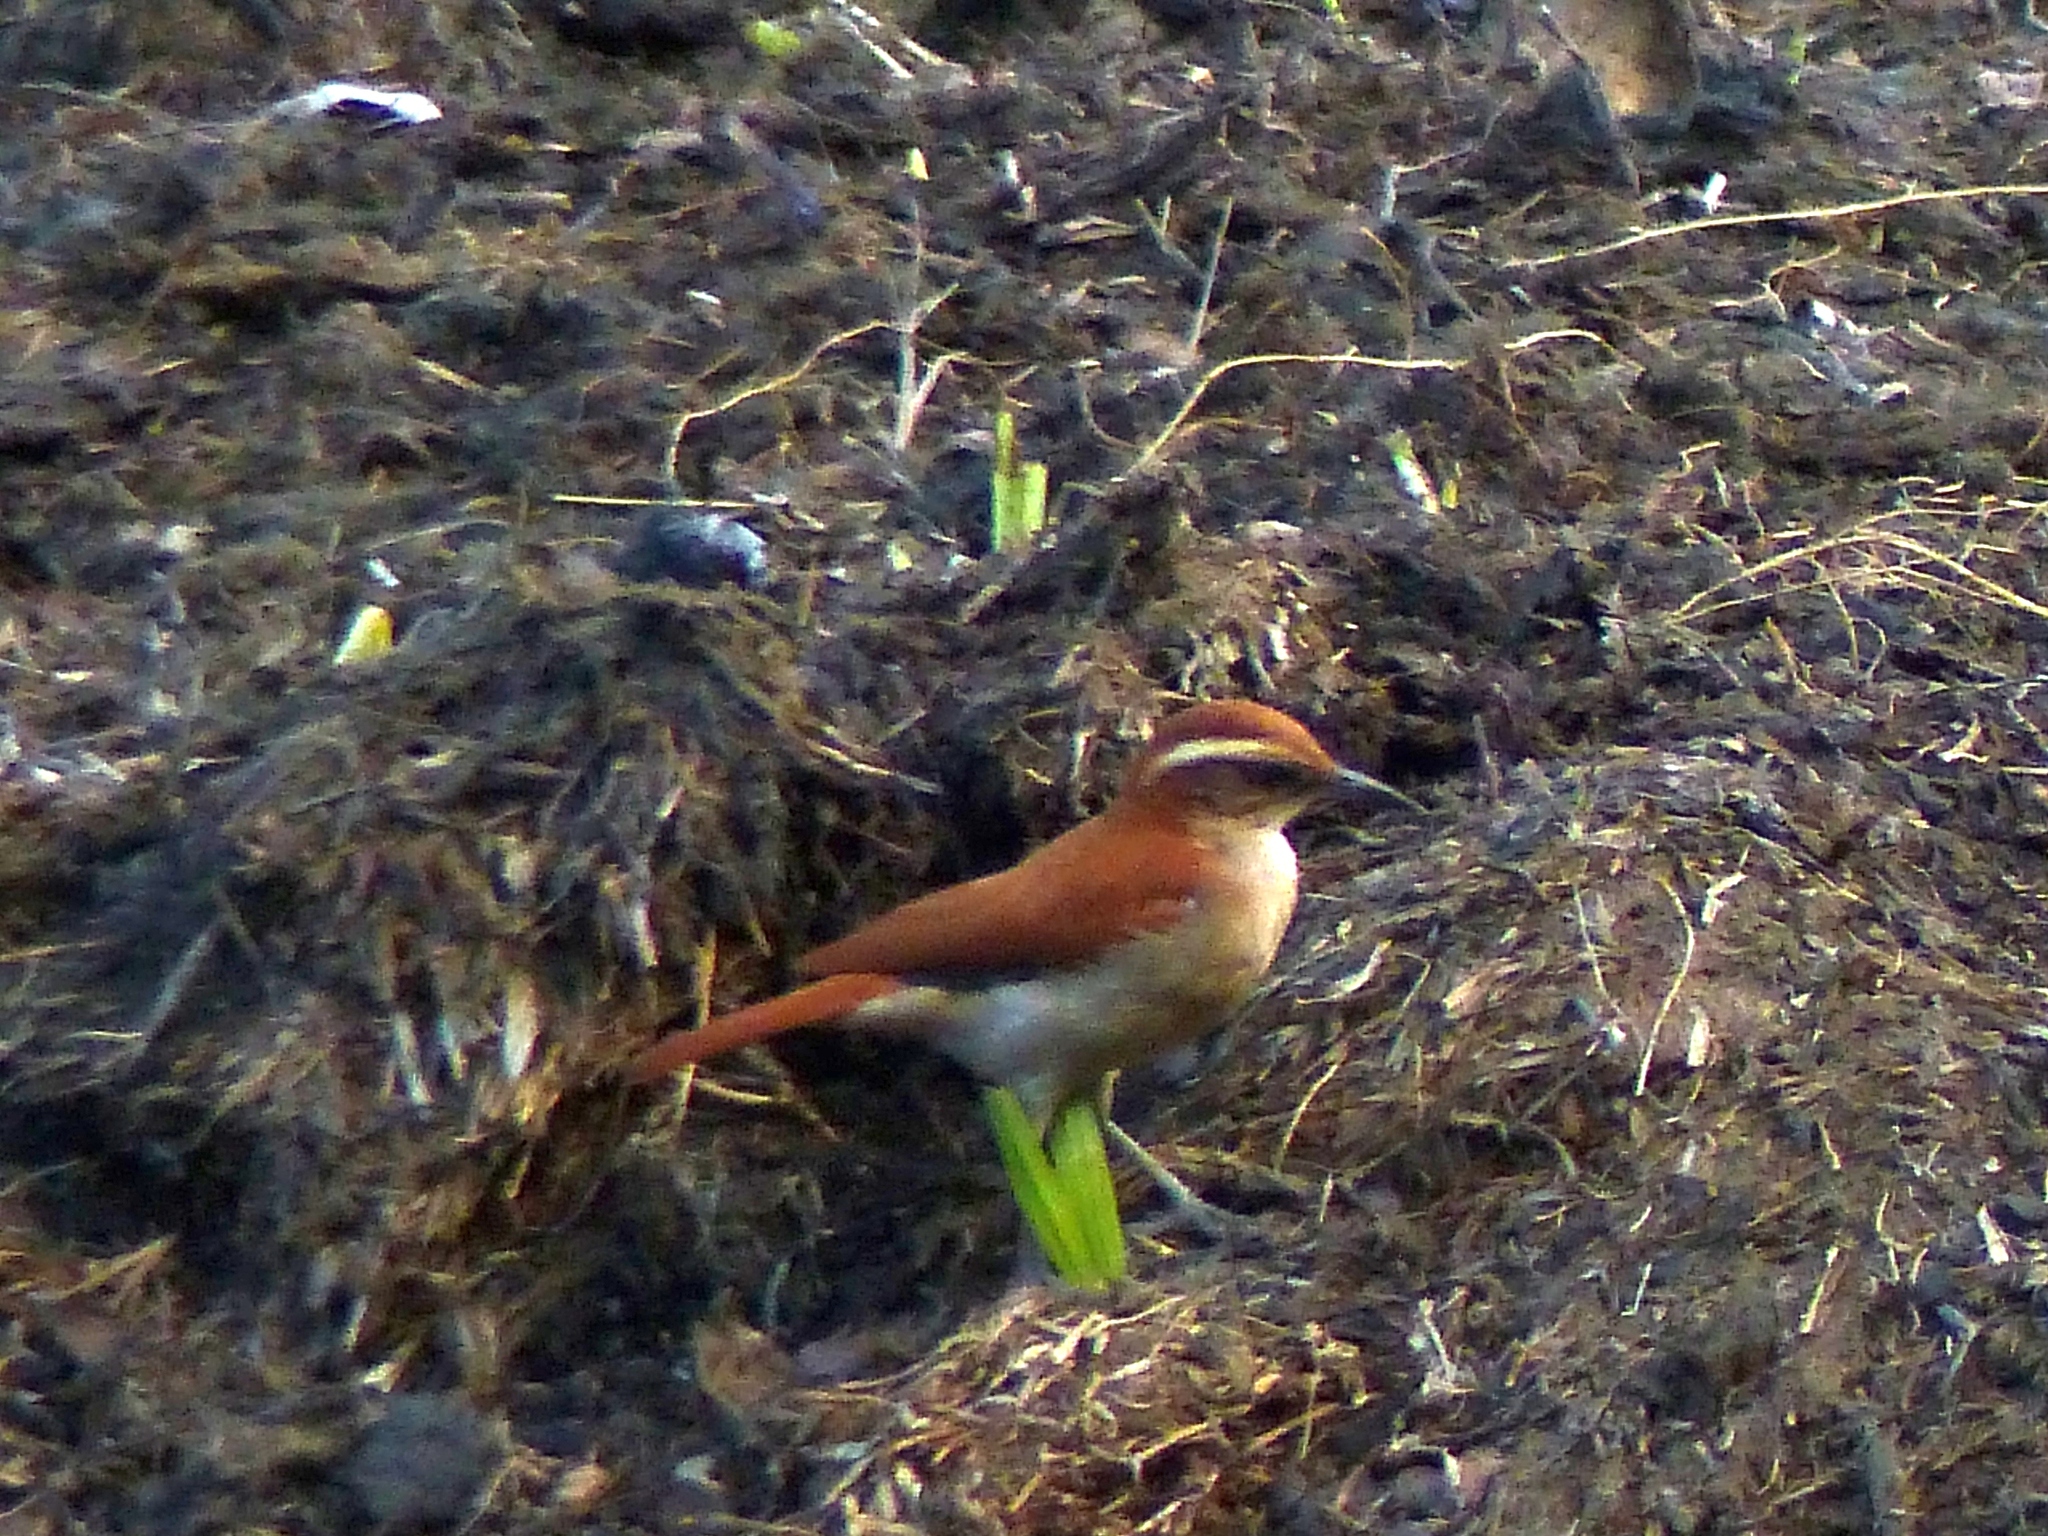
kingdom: Animalia
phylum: Chordata
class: Aves
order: Passeriformes
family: Furnariidae
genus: Furnarius
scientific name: Furnarius figulus
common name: Band-tailed hornero
